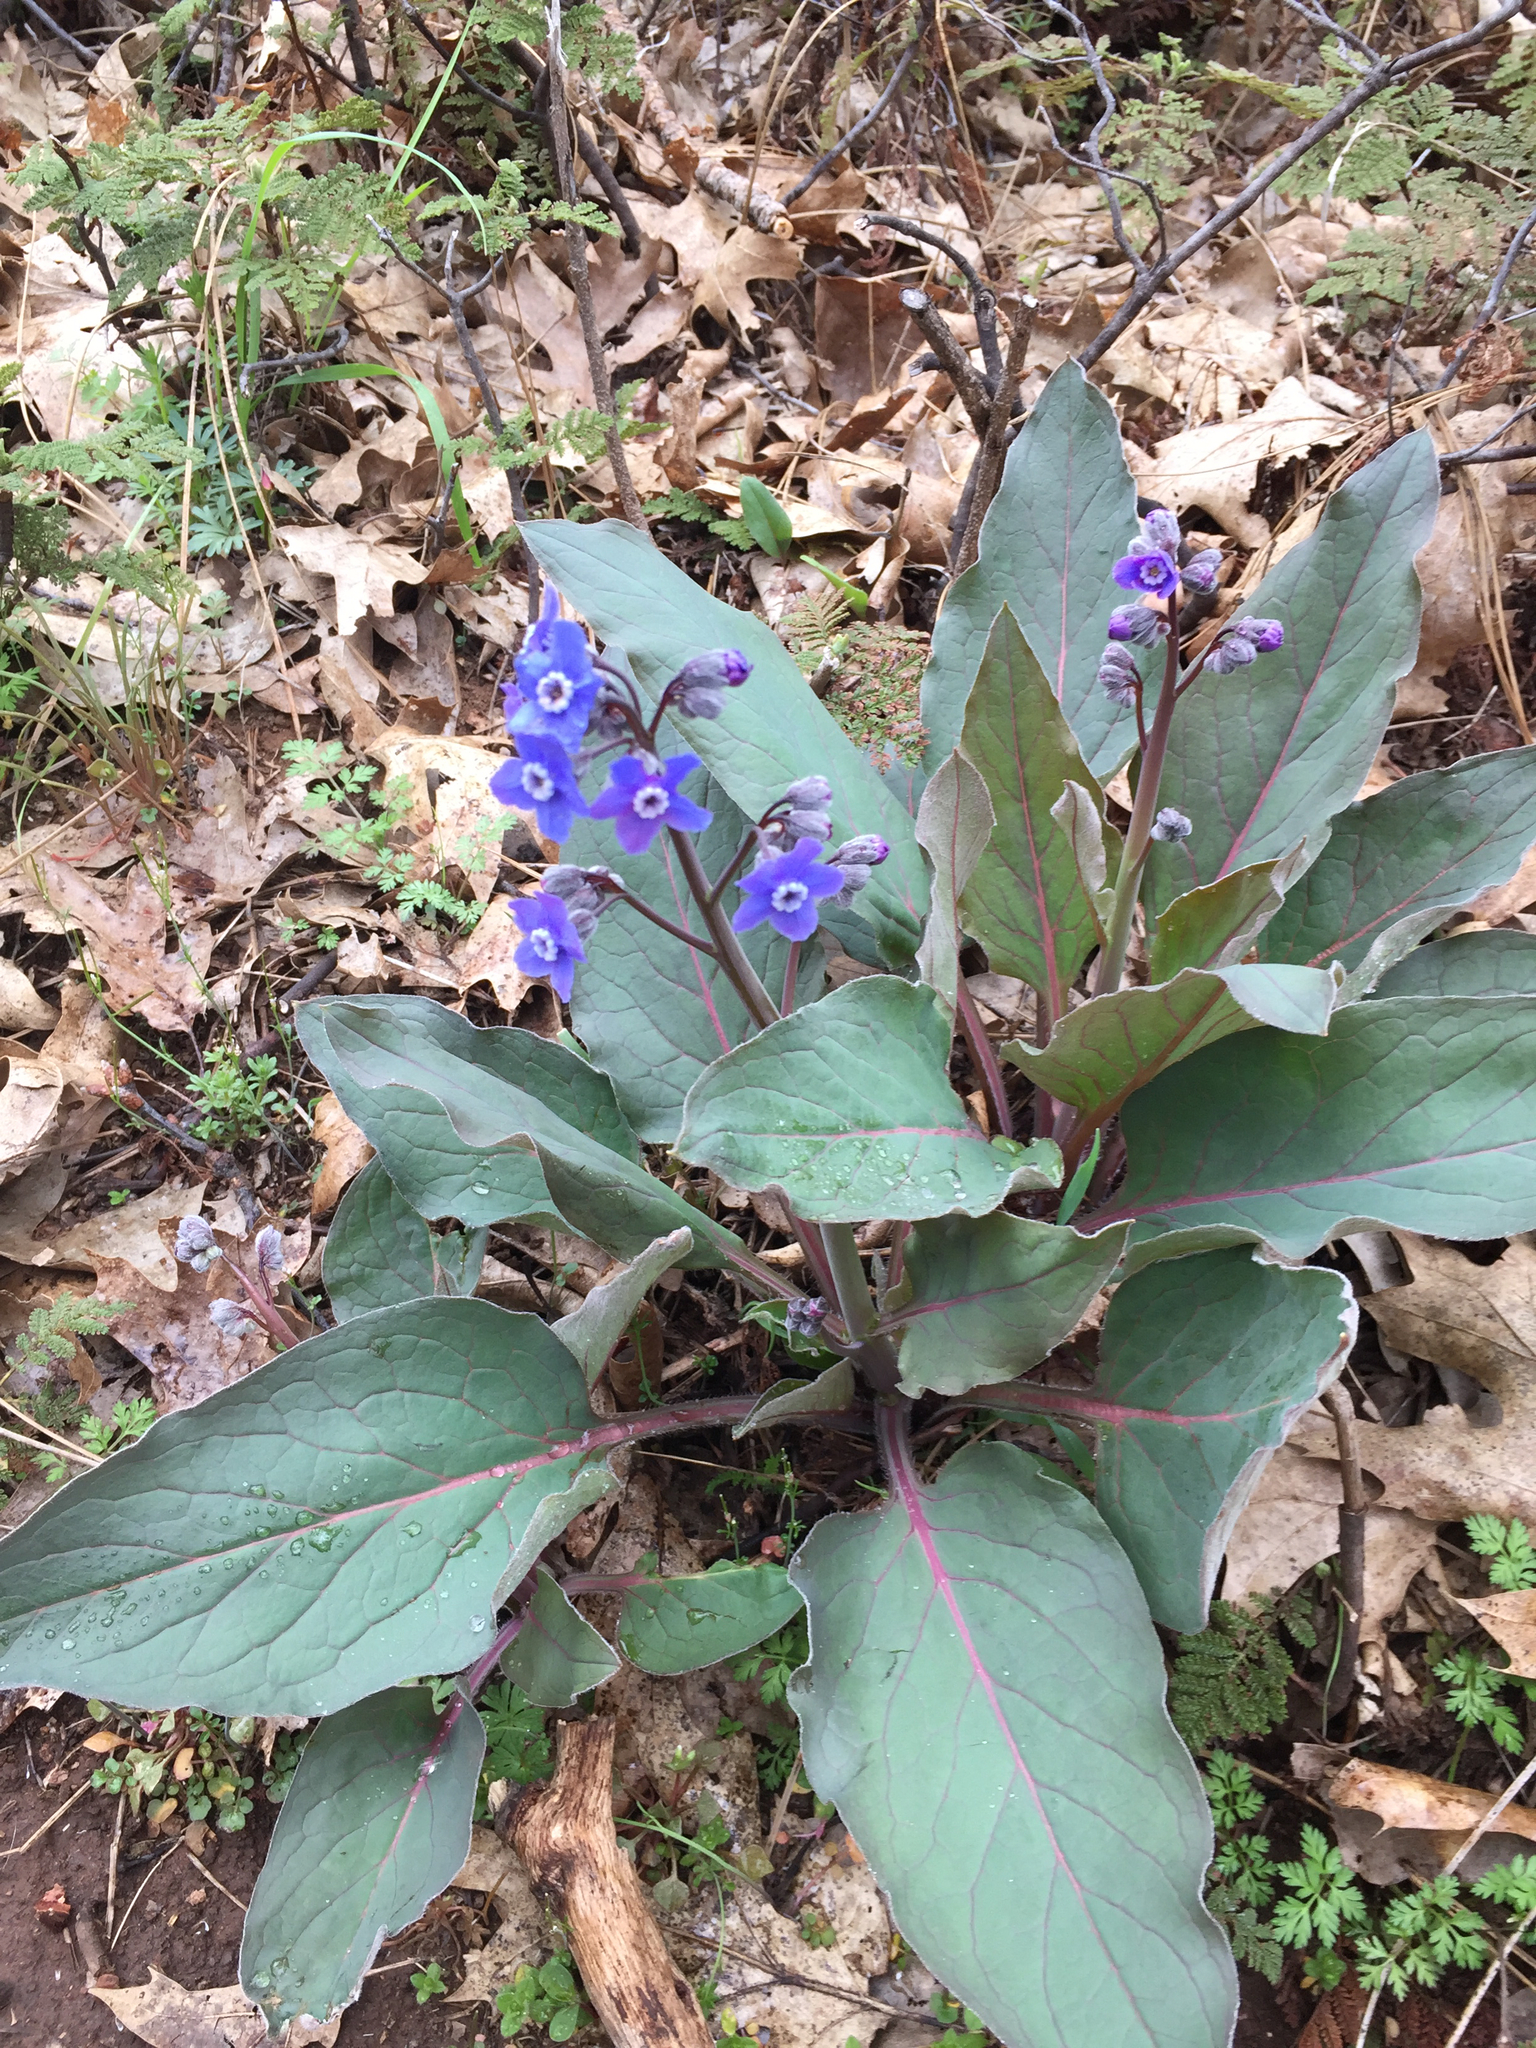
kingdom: Plantae
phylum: Tracheophyta
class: Magnoliopsida
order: Boraginales
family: Boraginaceae
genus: Adelinia
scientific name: Adelinia grande
